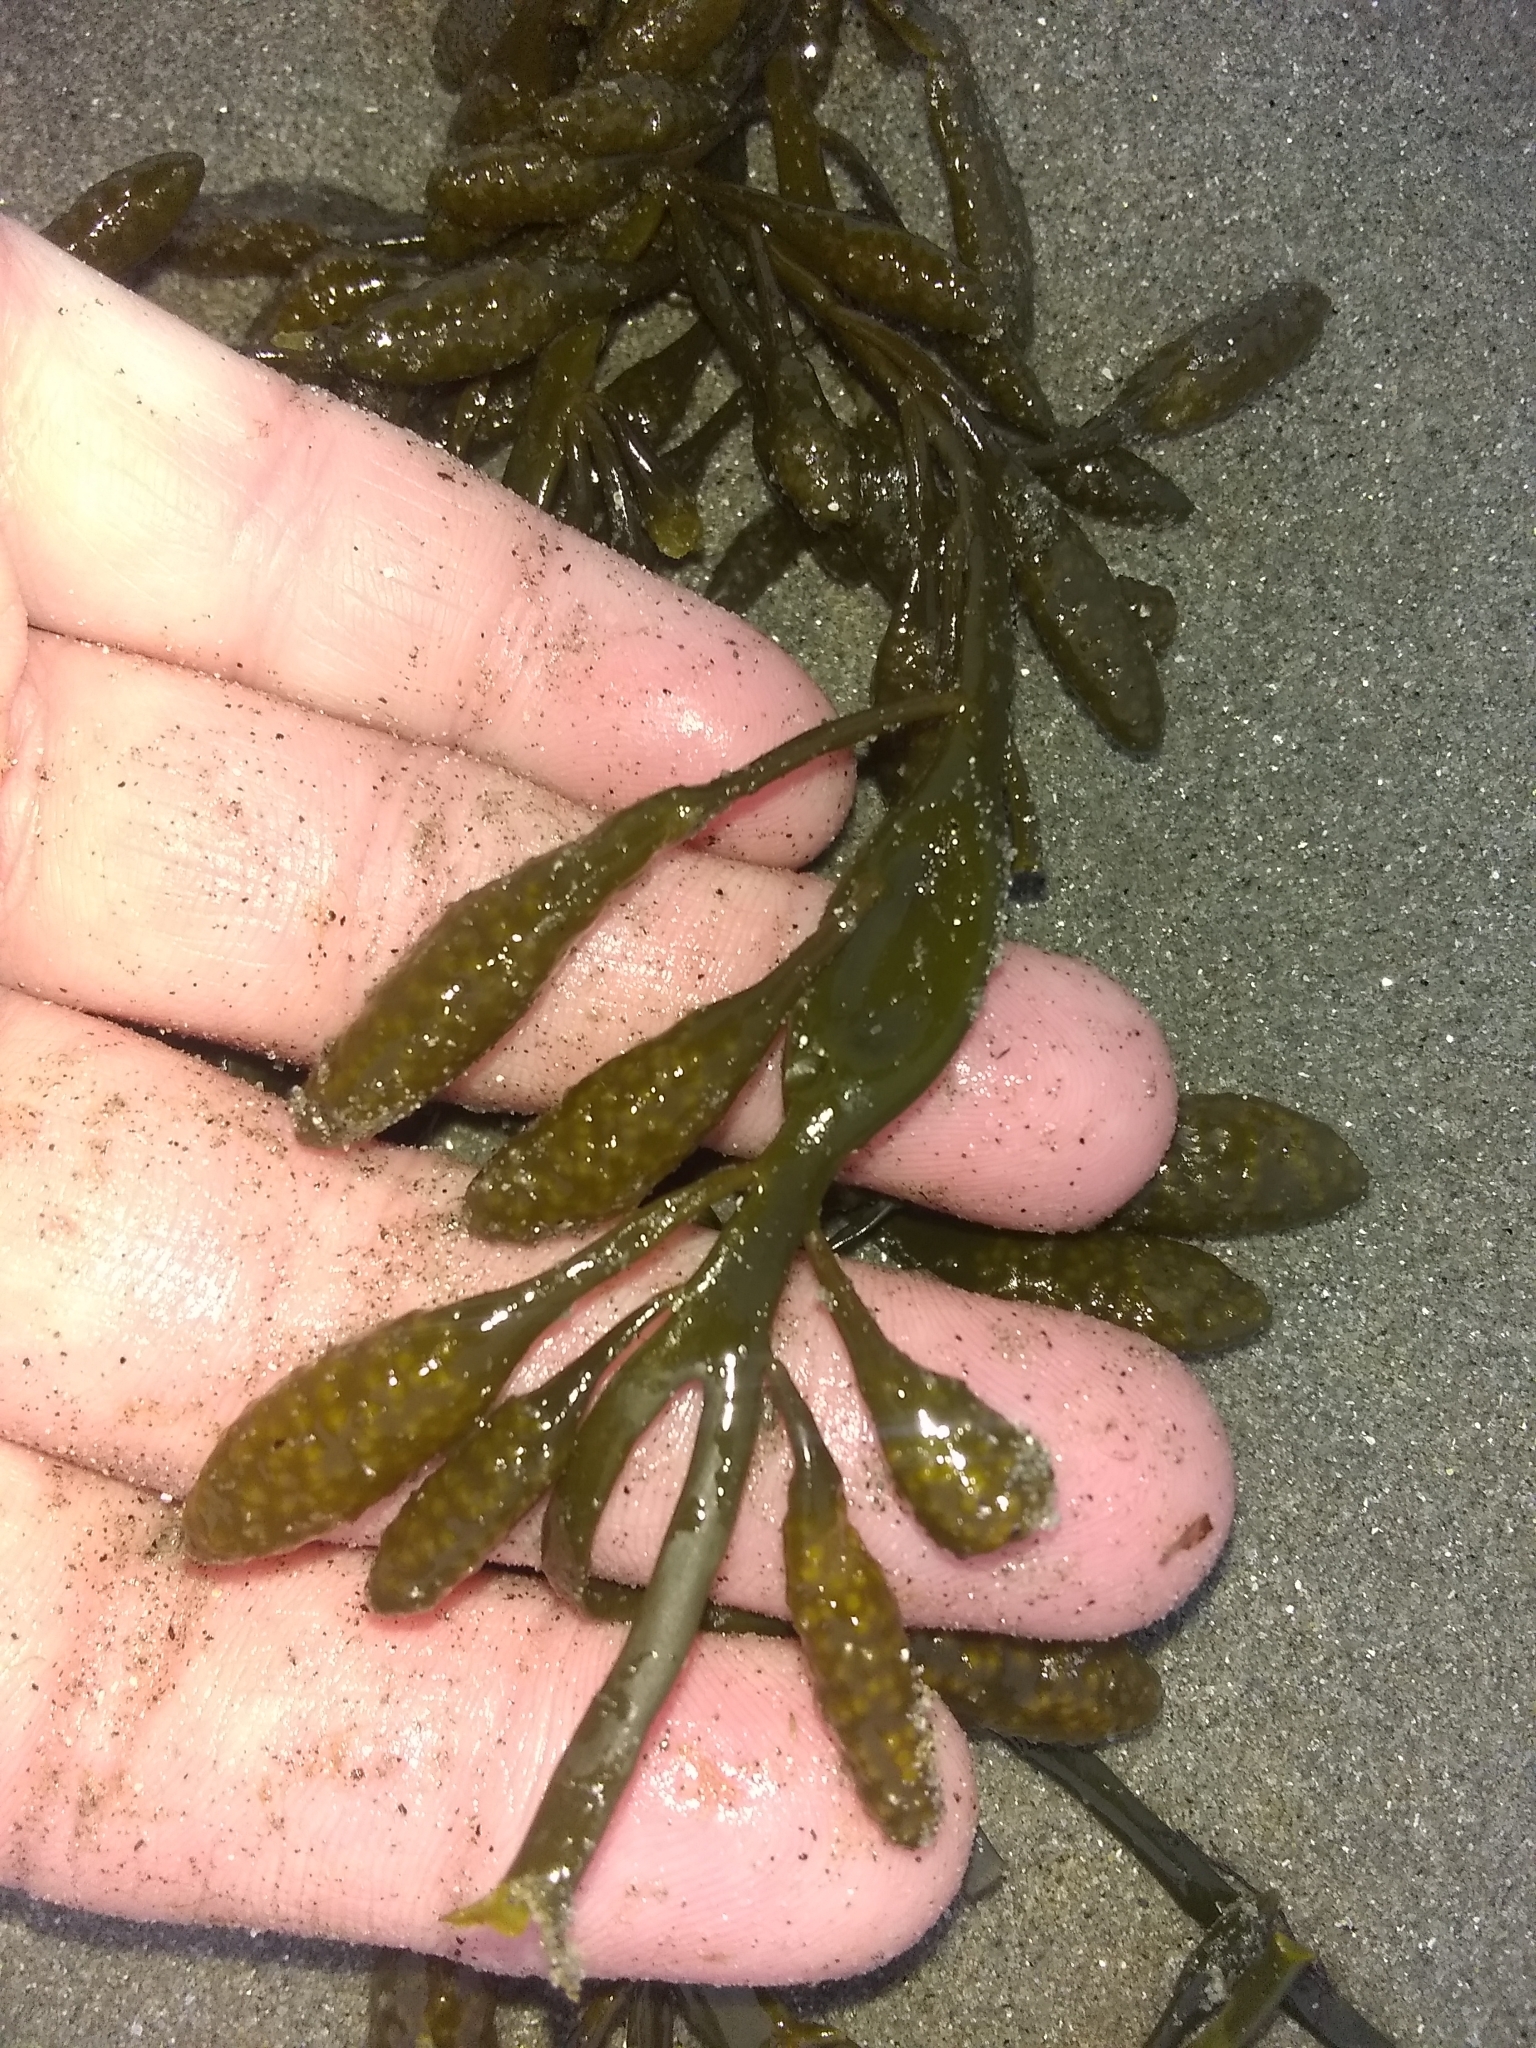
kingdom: Chromista
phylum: Ochrophyta
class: Phaeophyceae
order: Fucales
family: Fucaceae
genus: Ascophyllum
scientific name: Ascophyllum nodosum
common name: Knotted wrack
